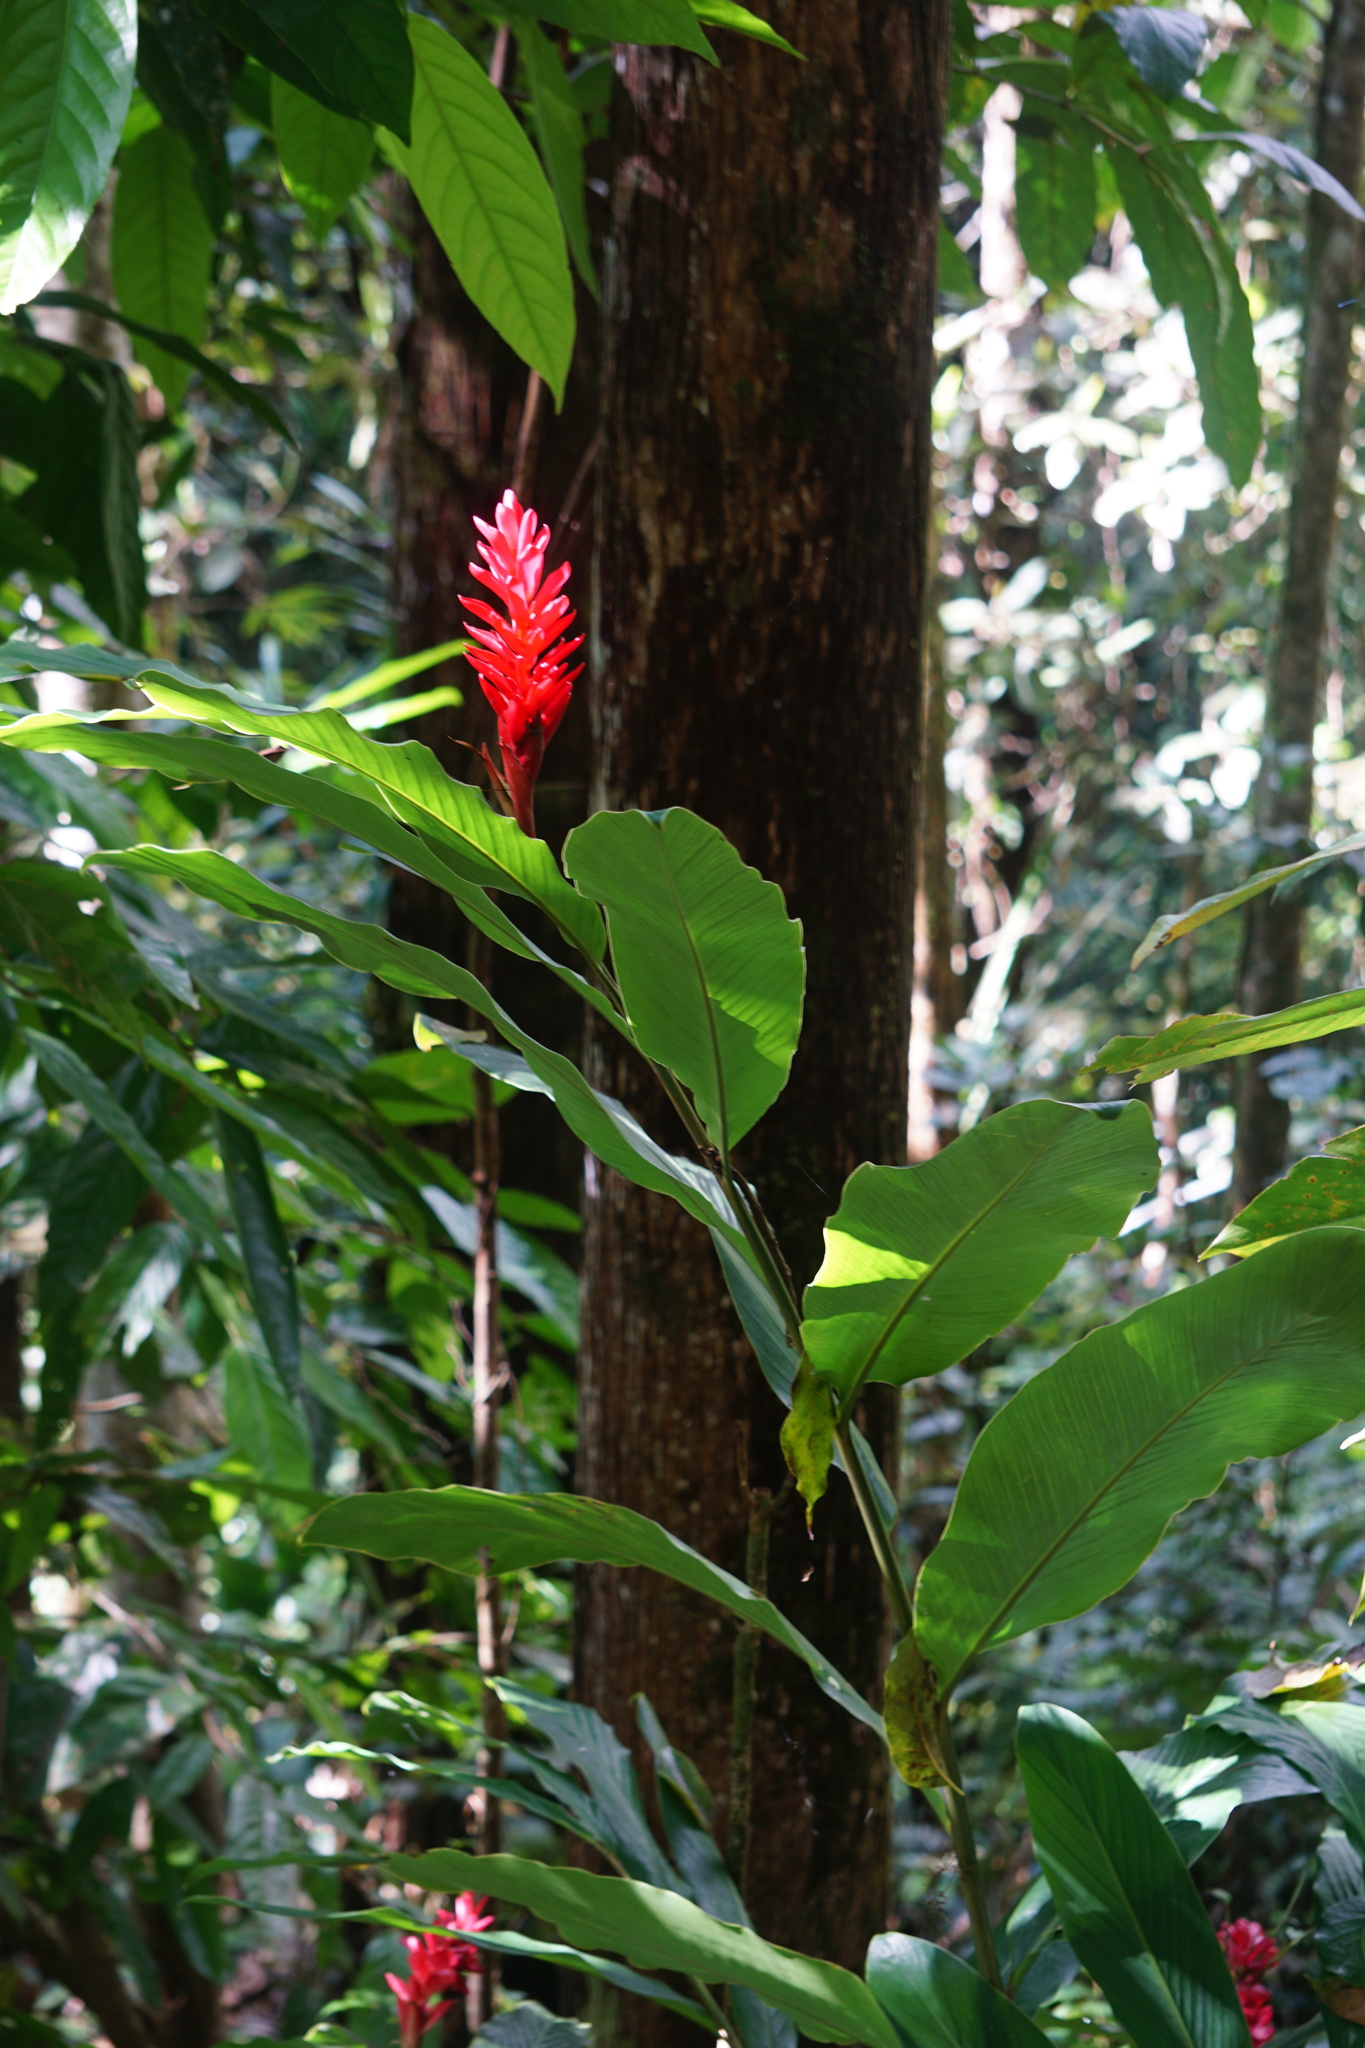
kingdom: Plantae
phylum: Tracheophyta
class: Liliopsida
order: Zingiberales
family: Zingiberaceae
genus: Alpinia
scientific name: Alpinia purpurata
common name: Red ginger
